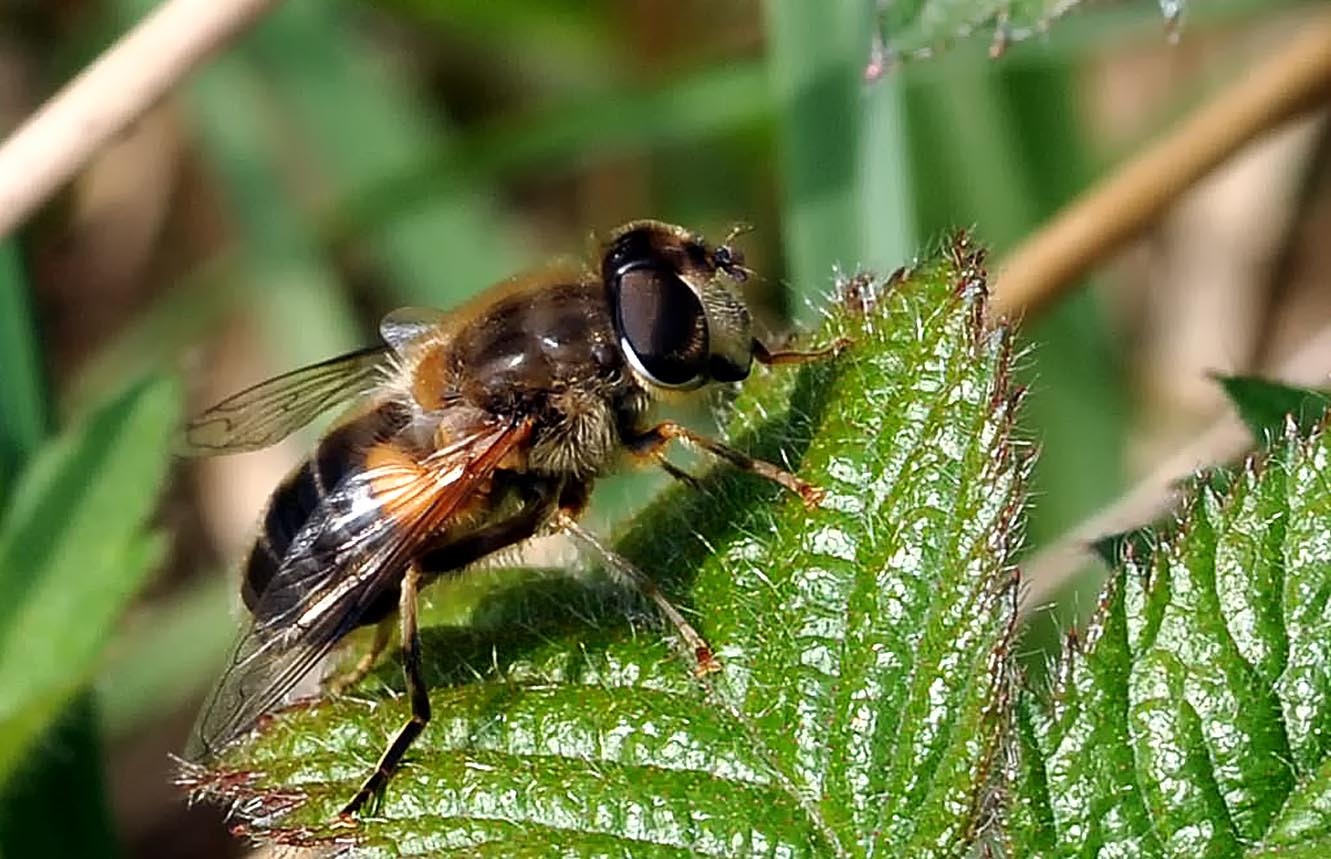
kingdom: Animalia
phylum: Arthropoda
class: Insecta
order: Diptera
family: Syrphidae
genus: Eristalis
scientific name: Eristalis pertinax
